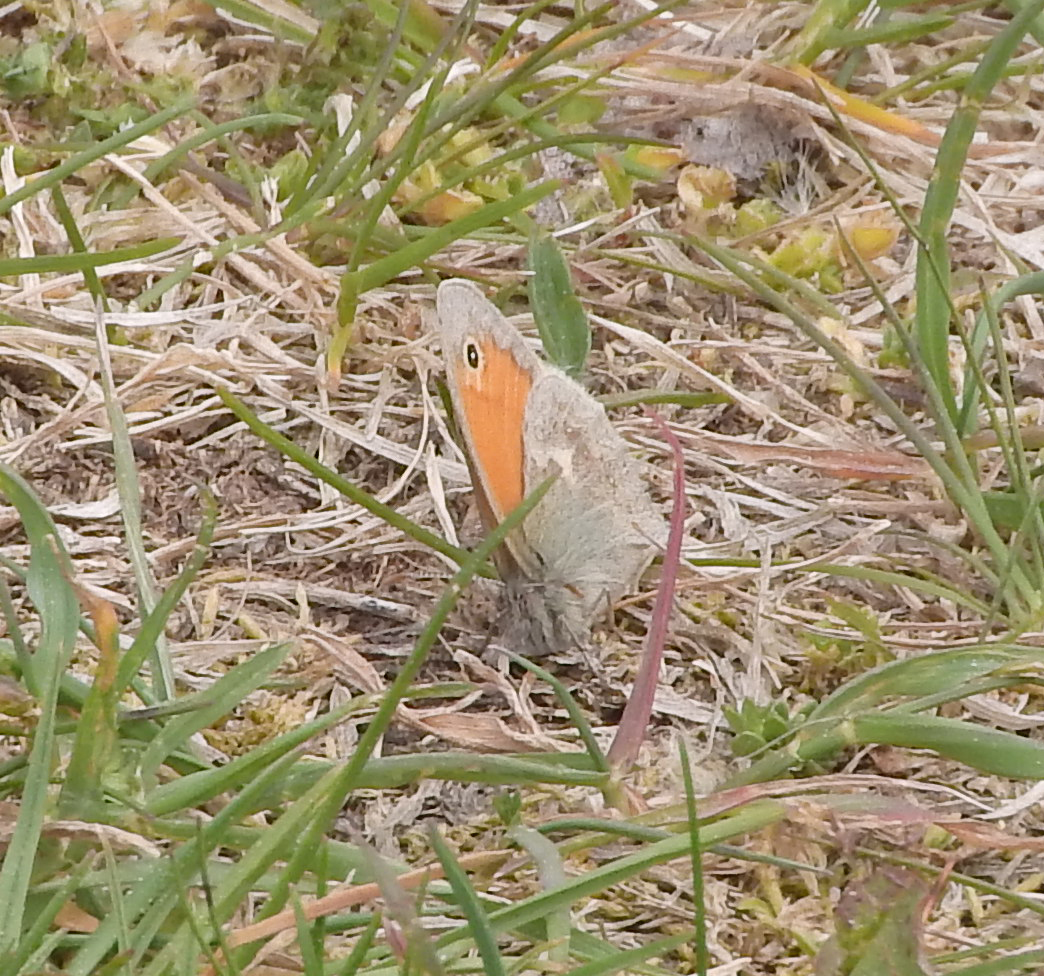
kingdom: Animalia
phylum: Arthropoda
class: Insecta
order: Lepidoptera
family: Nymphalidae
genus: Coenonympha
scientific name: Coenonympha pamphilus
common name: Small heath
